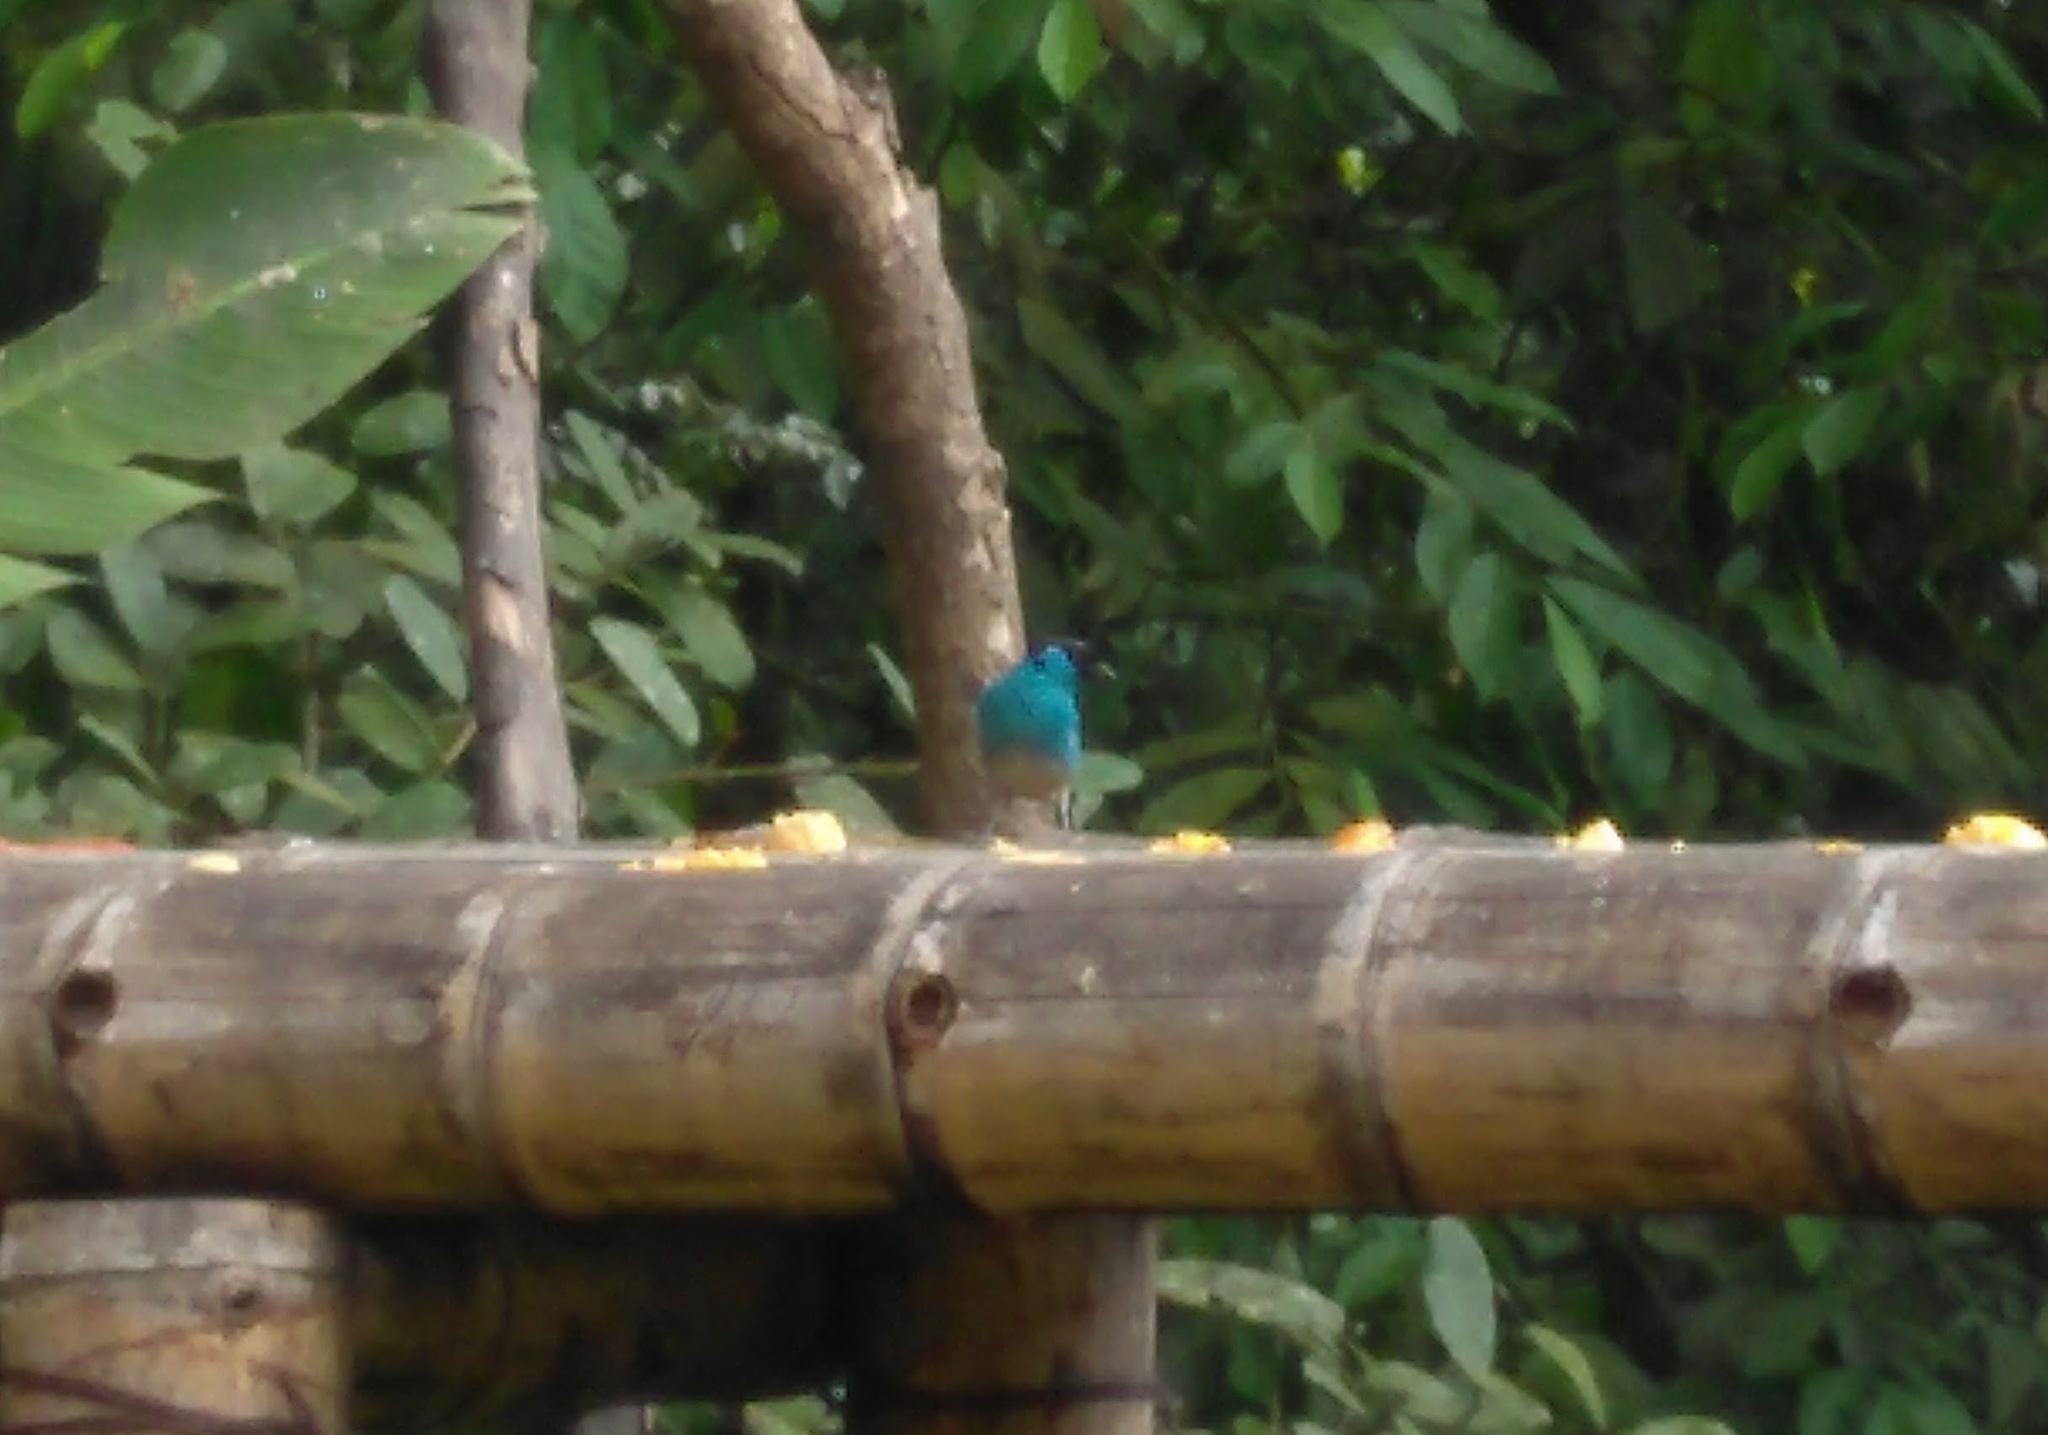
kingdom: Animalia
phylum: Chordata
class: Aves
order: Passeriformes
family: Thraupidae
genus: Chalcothraupis
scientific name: Chalcothraupis ruficervix
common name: Golden-naped tanager
